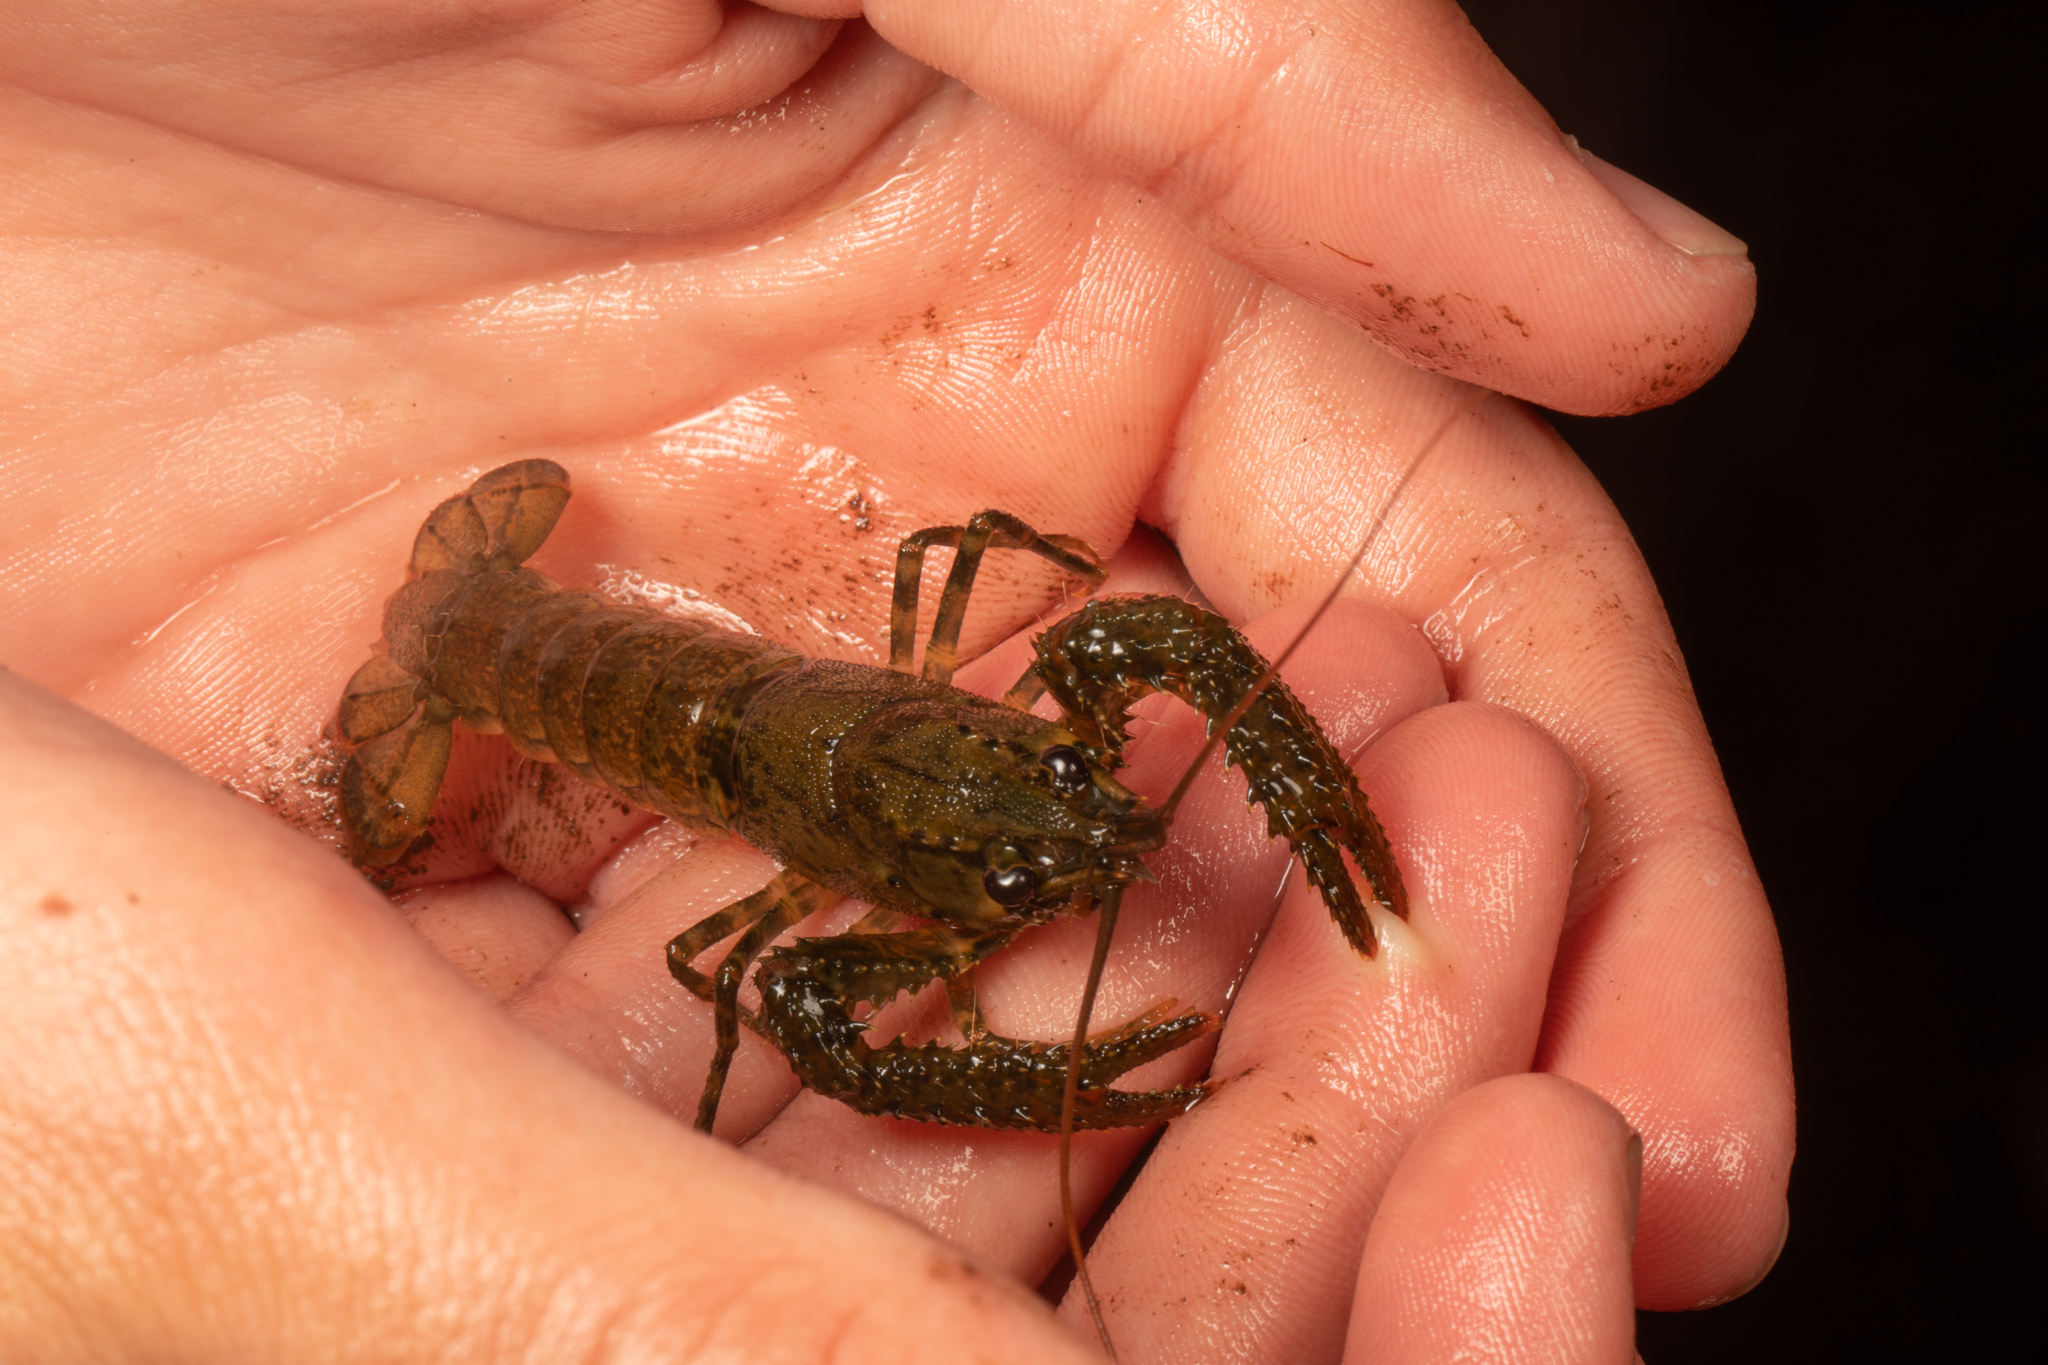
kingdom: Animalia
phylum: Arthropoda
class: Malacostraca
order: Decapoda
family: Parastacidae
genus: Paranephrops
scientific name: Paranephrops planifrons
